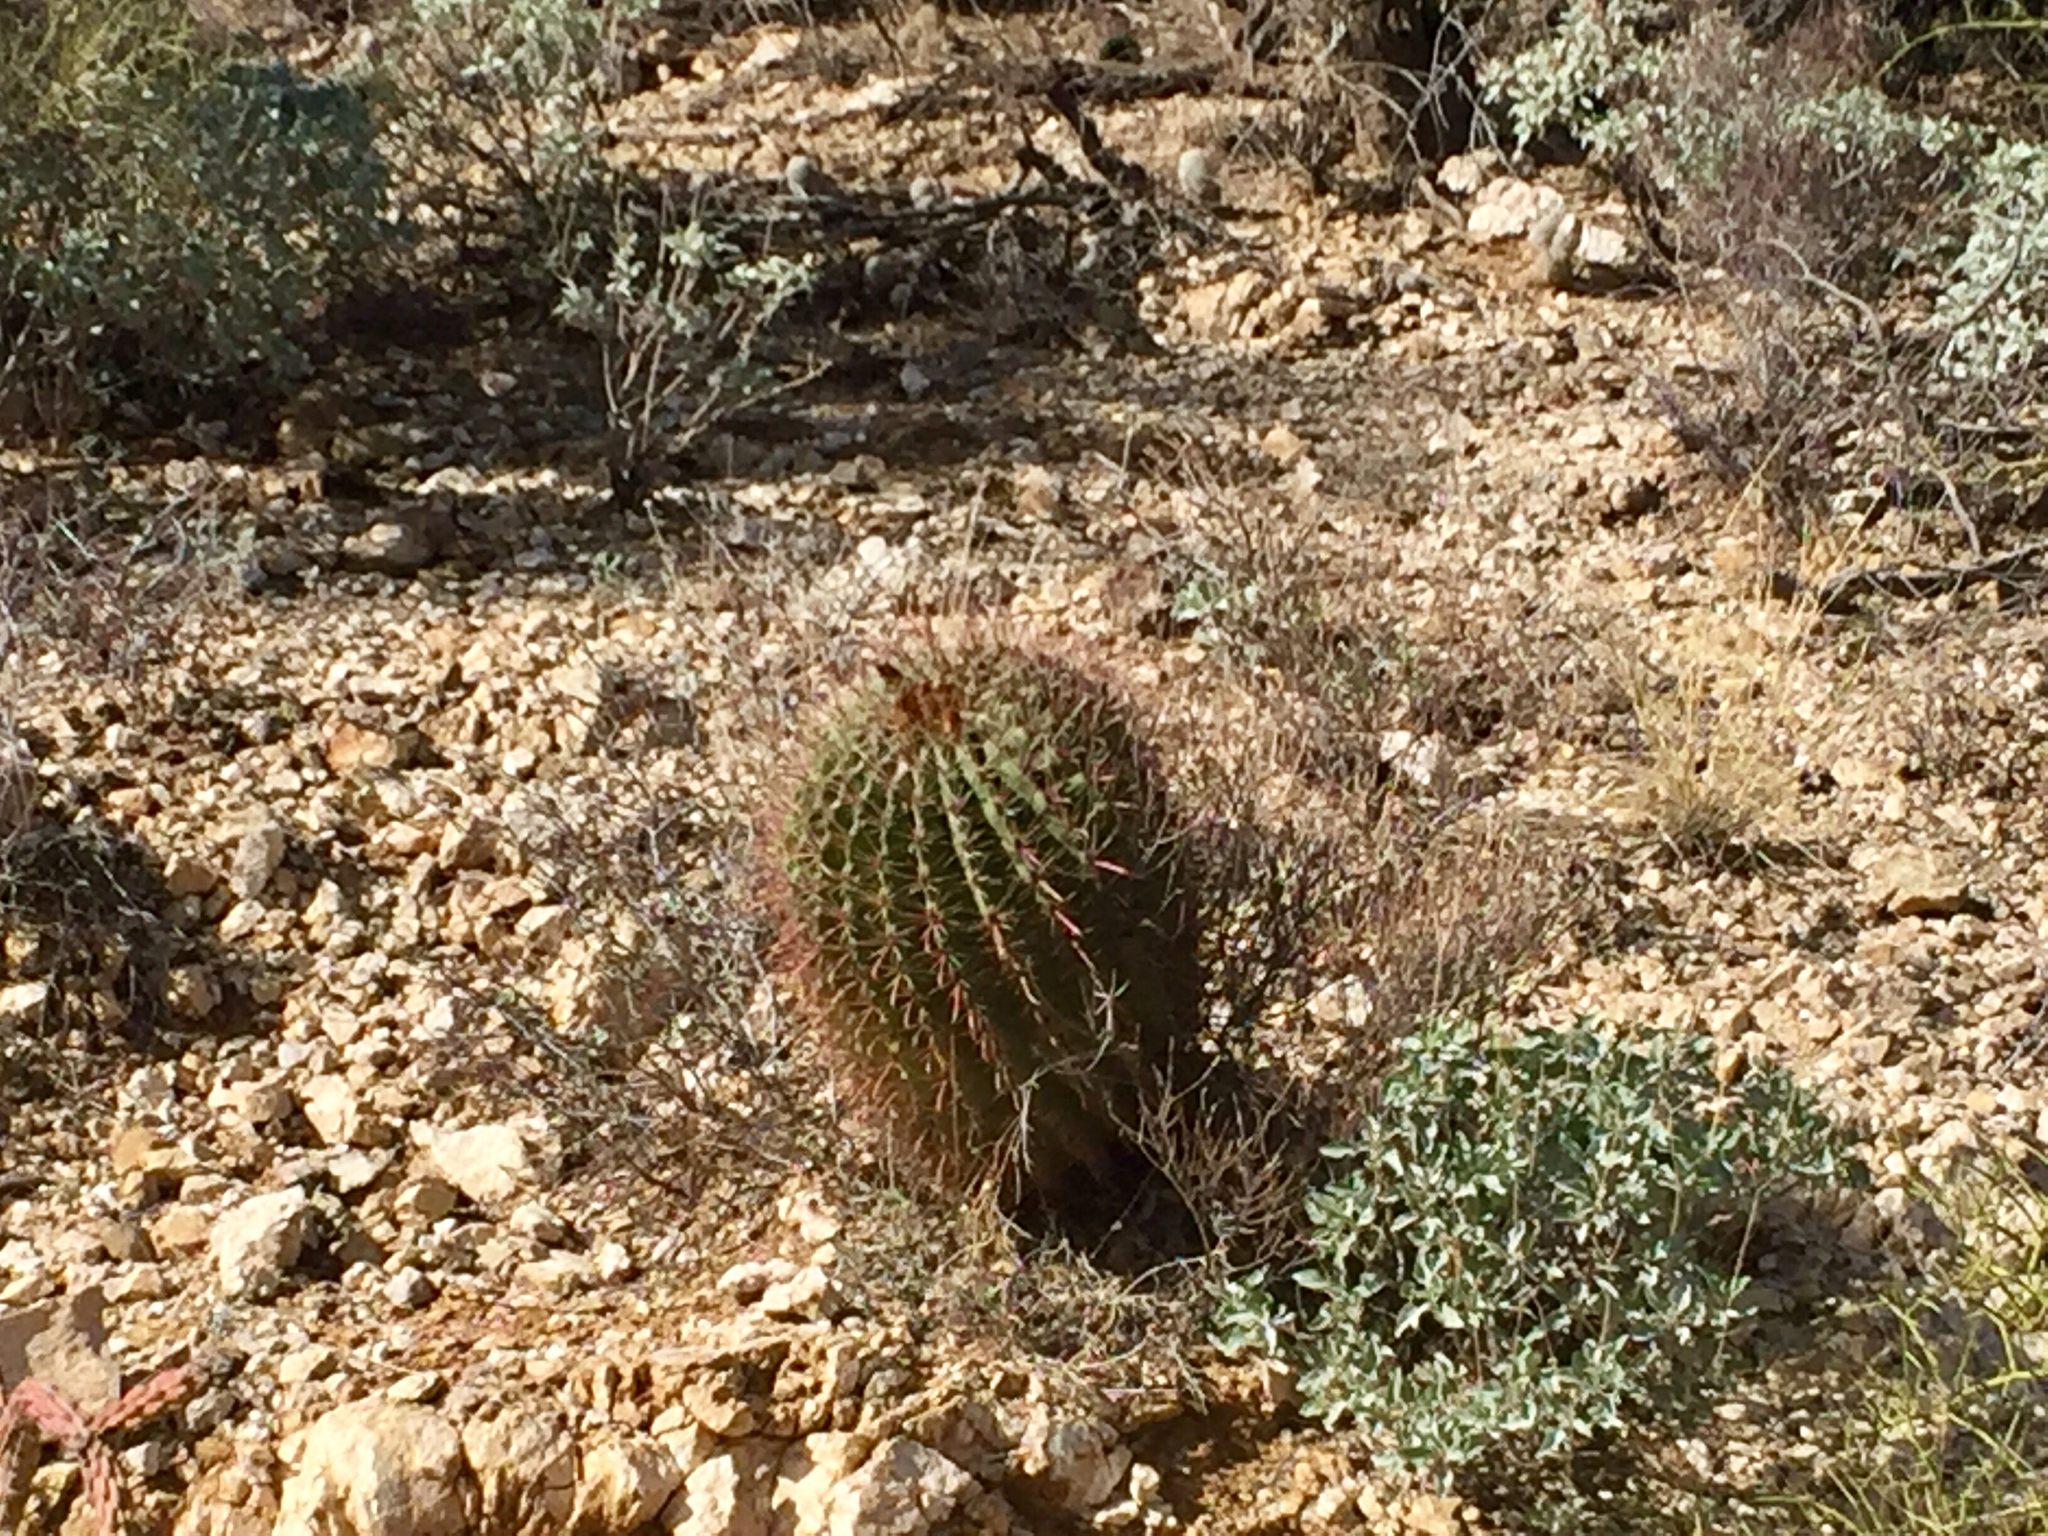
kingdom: Plantae
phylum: Tracheophyta
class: Magnoliopsida
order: Caryophyllales
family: Cactaceae
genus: Ferocactus
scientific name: Ferocactus wislizeni
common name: Candy barrel cactus
